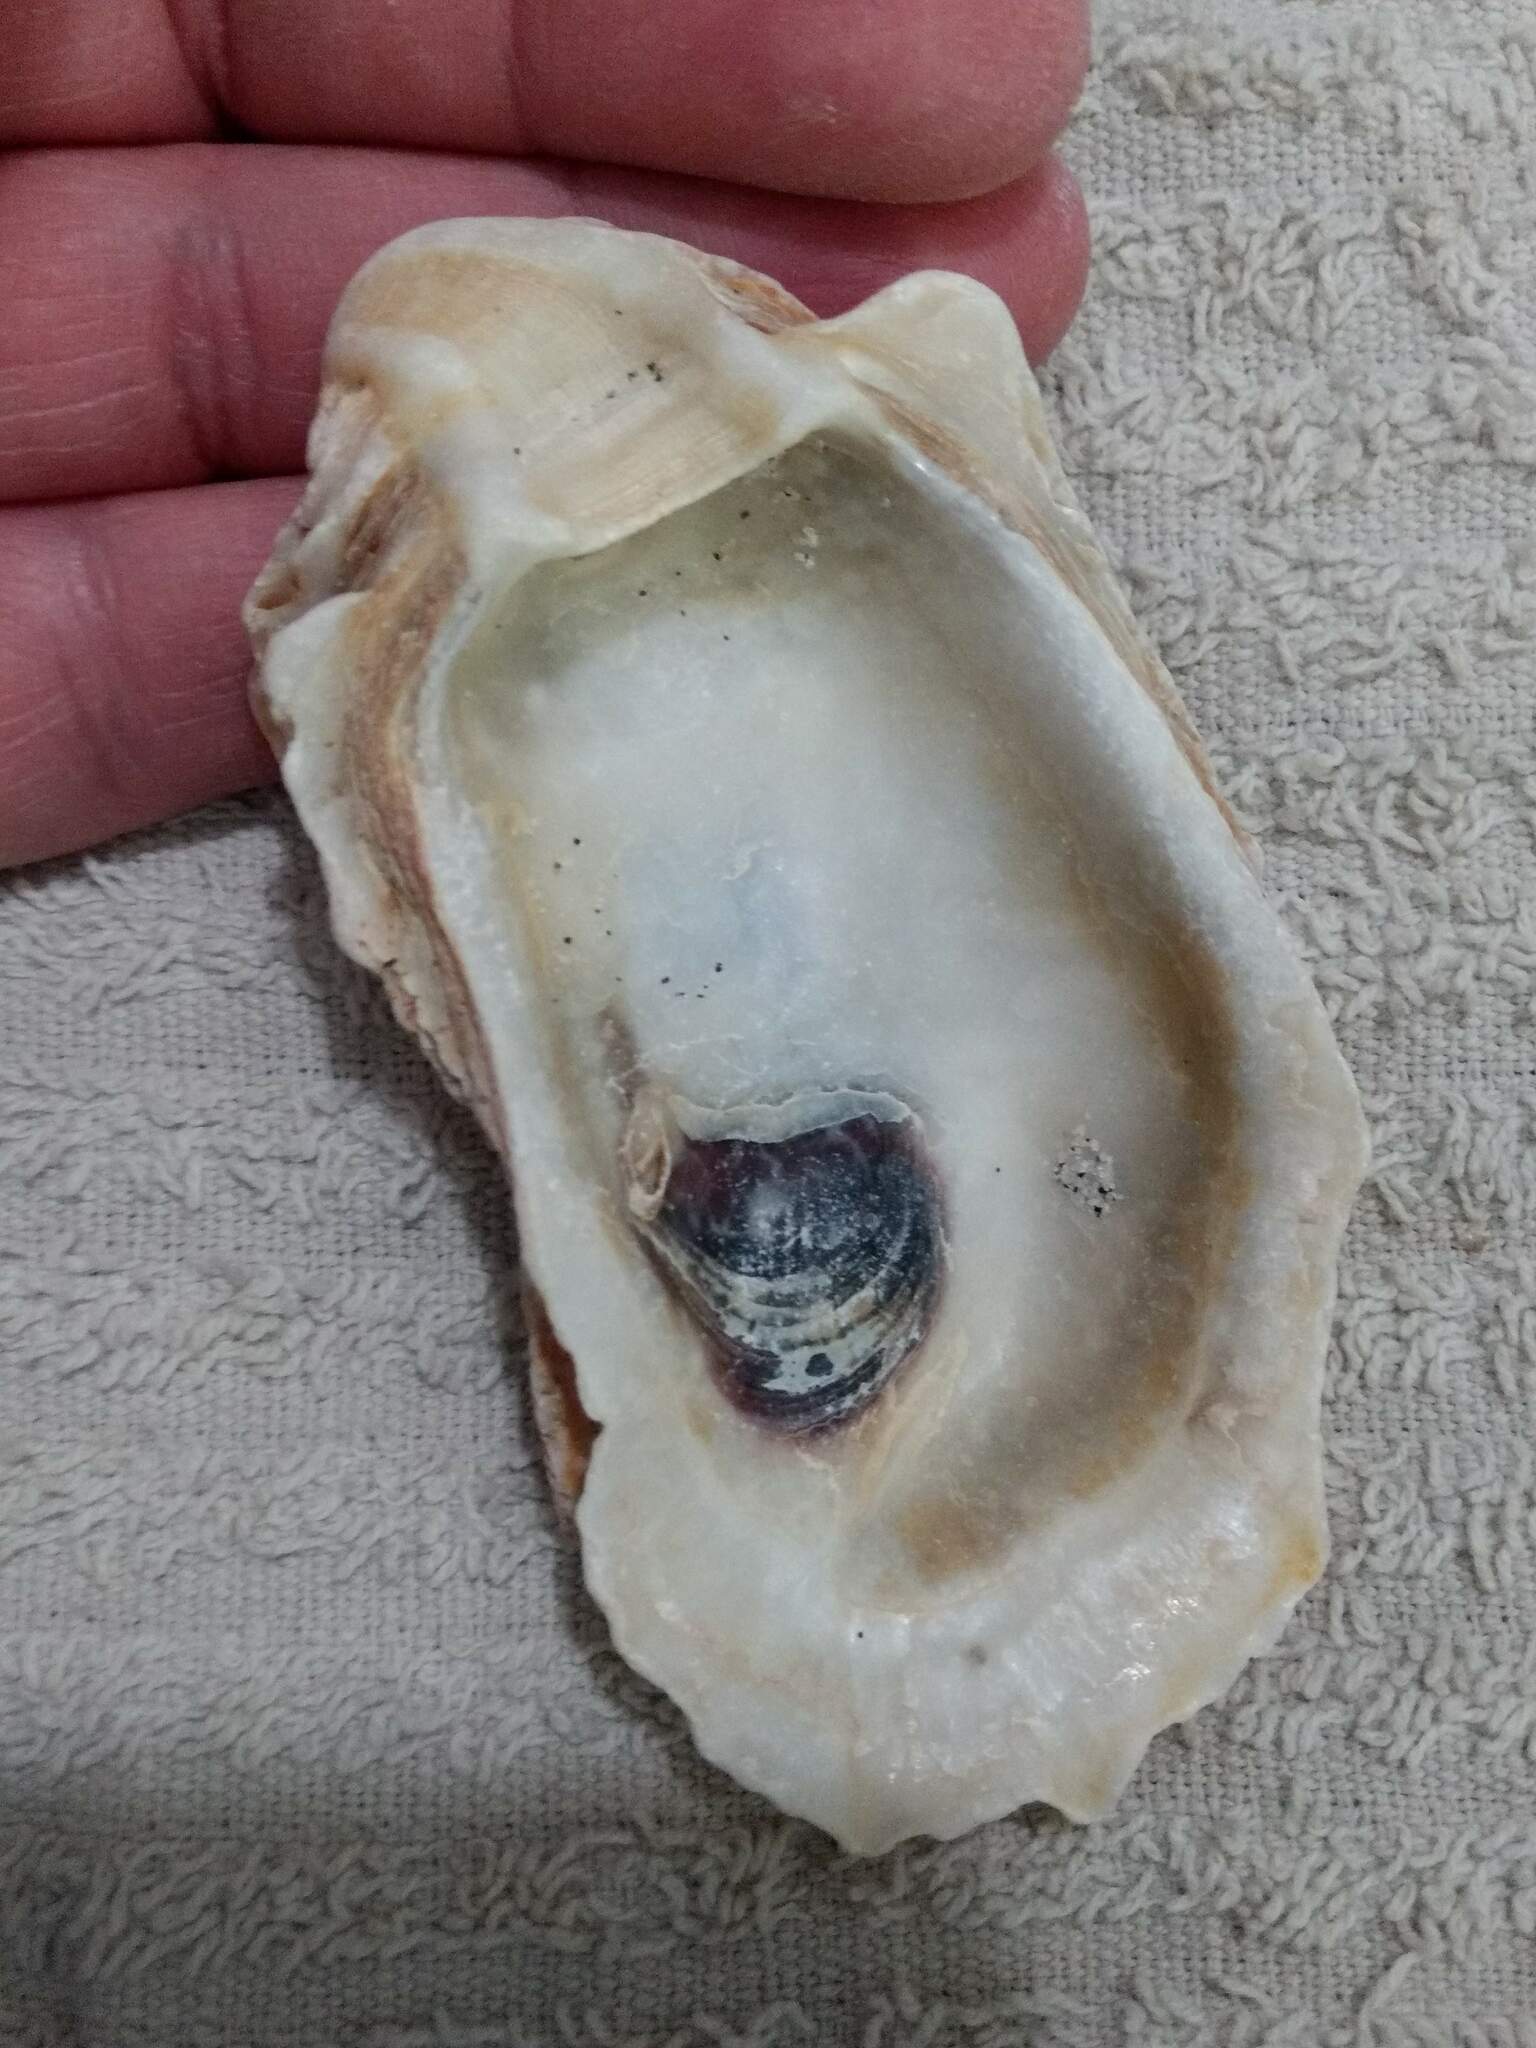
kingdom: Animalia
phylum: Mollusca
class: Bivalvia
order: Ostreida
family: Ostreidae
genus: Crassostrea
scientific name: Crassostrea virginica
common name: American oyster
